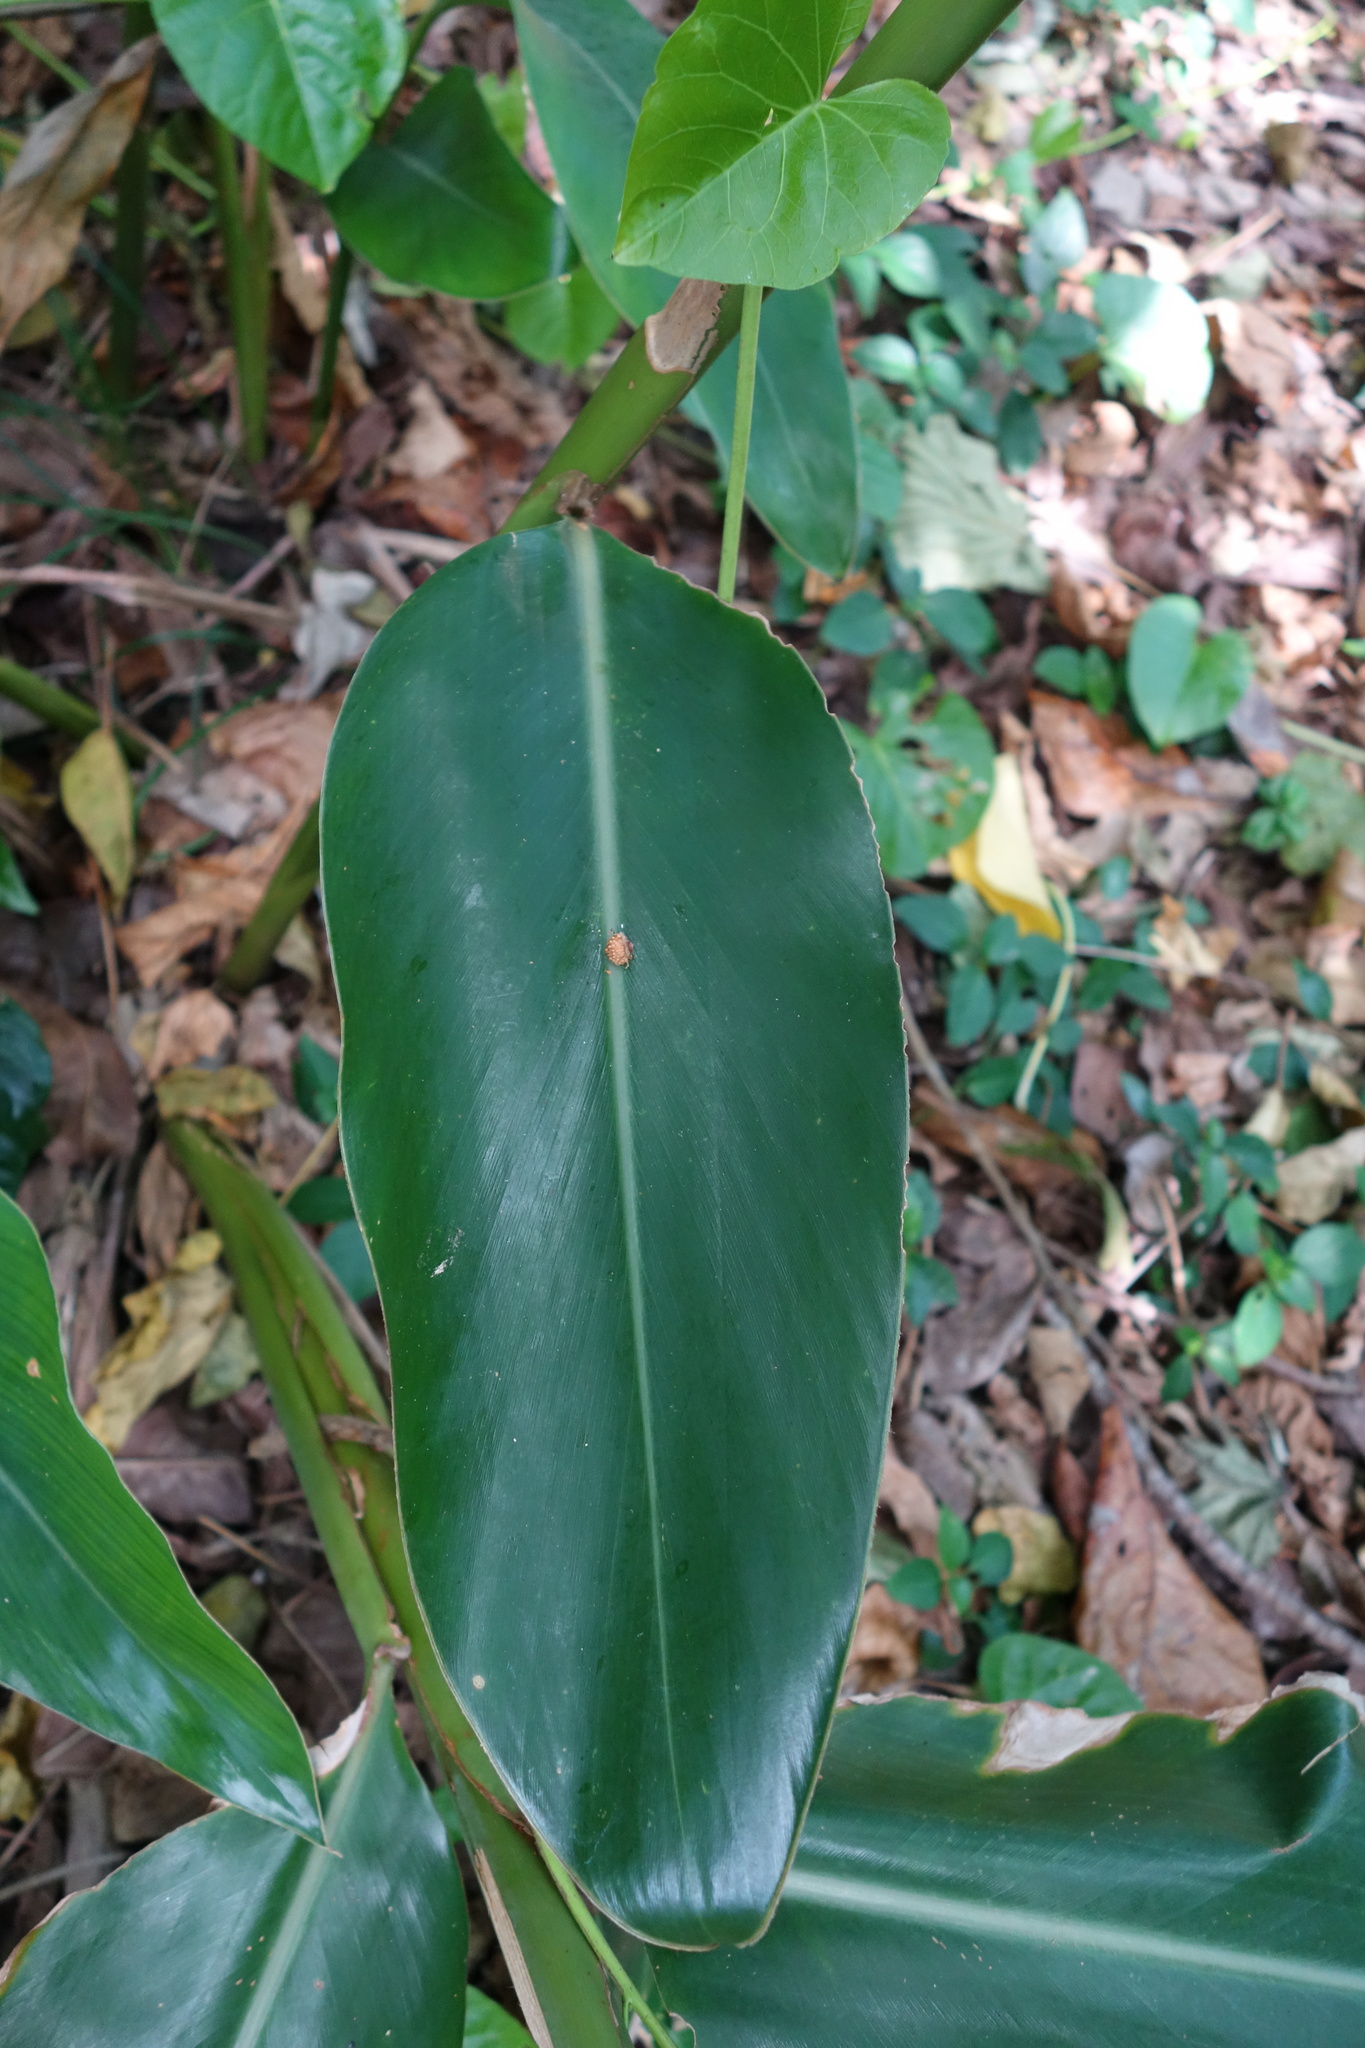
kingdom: Plantae
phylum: Tracheophyta
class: Liliopsida
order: Zingiberales
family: Zingiberaceae
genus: Alpinia
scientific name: Alpinia zerumbet
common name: Shellplant
